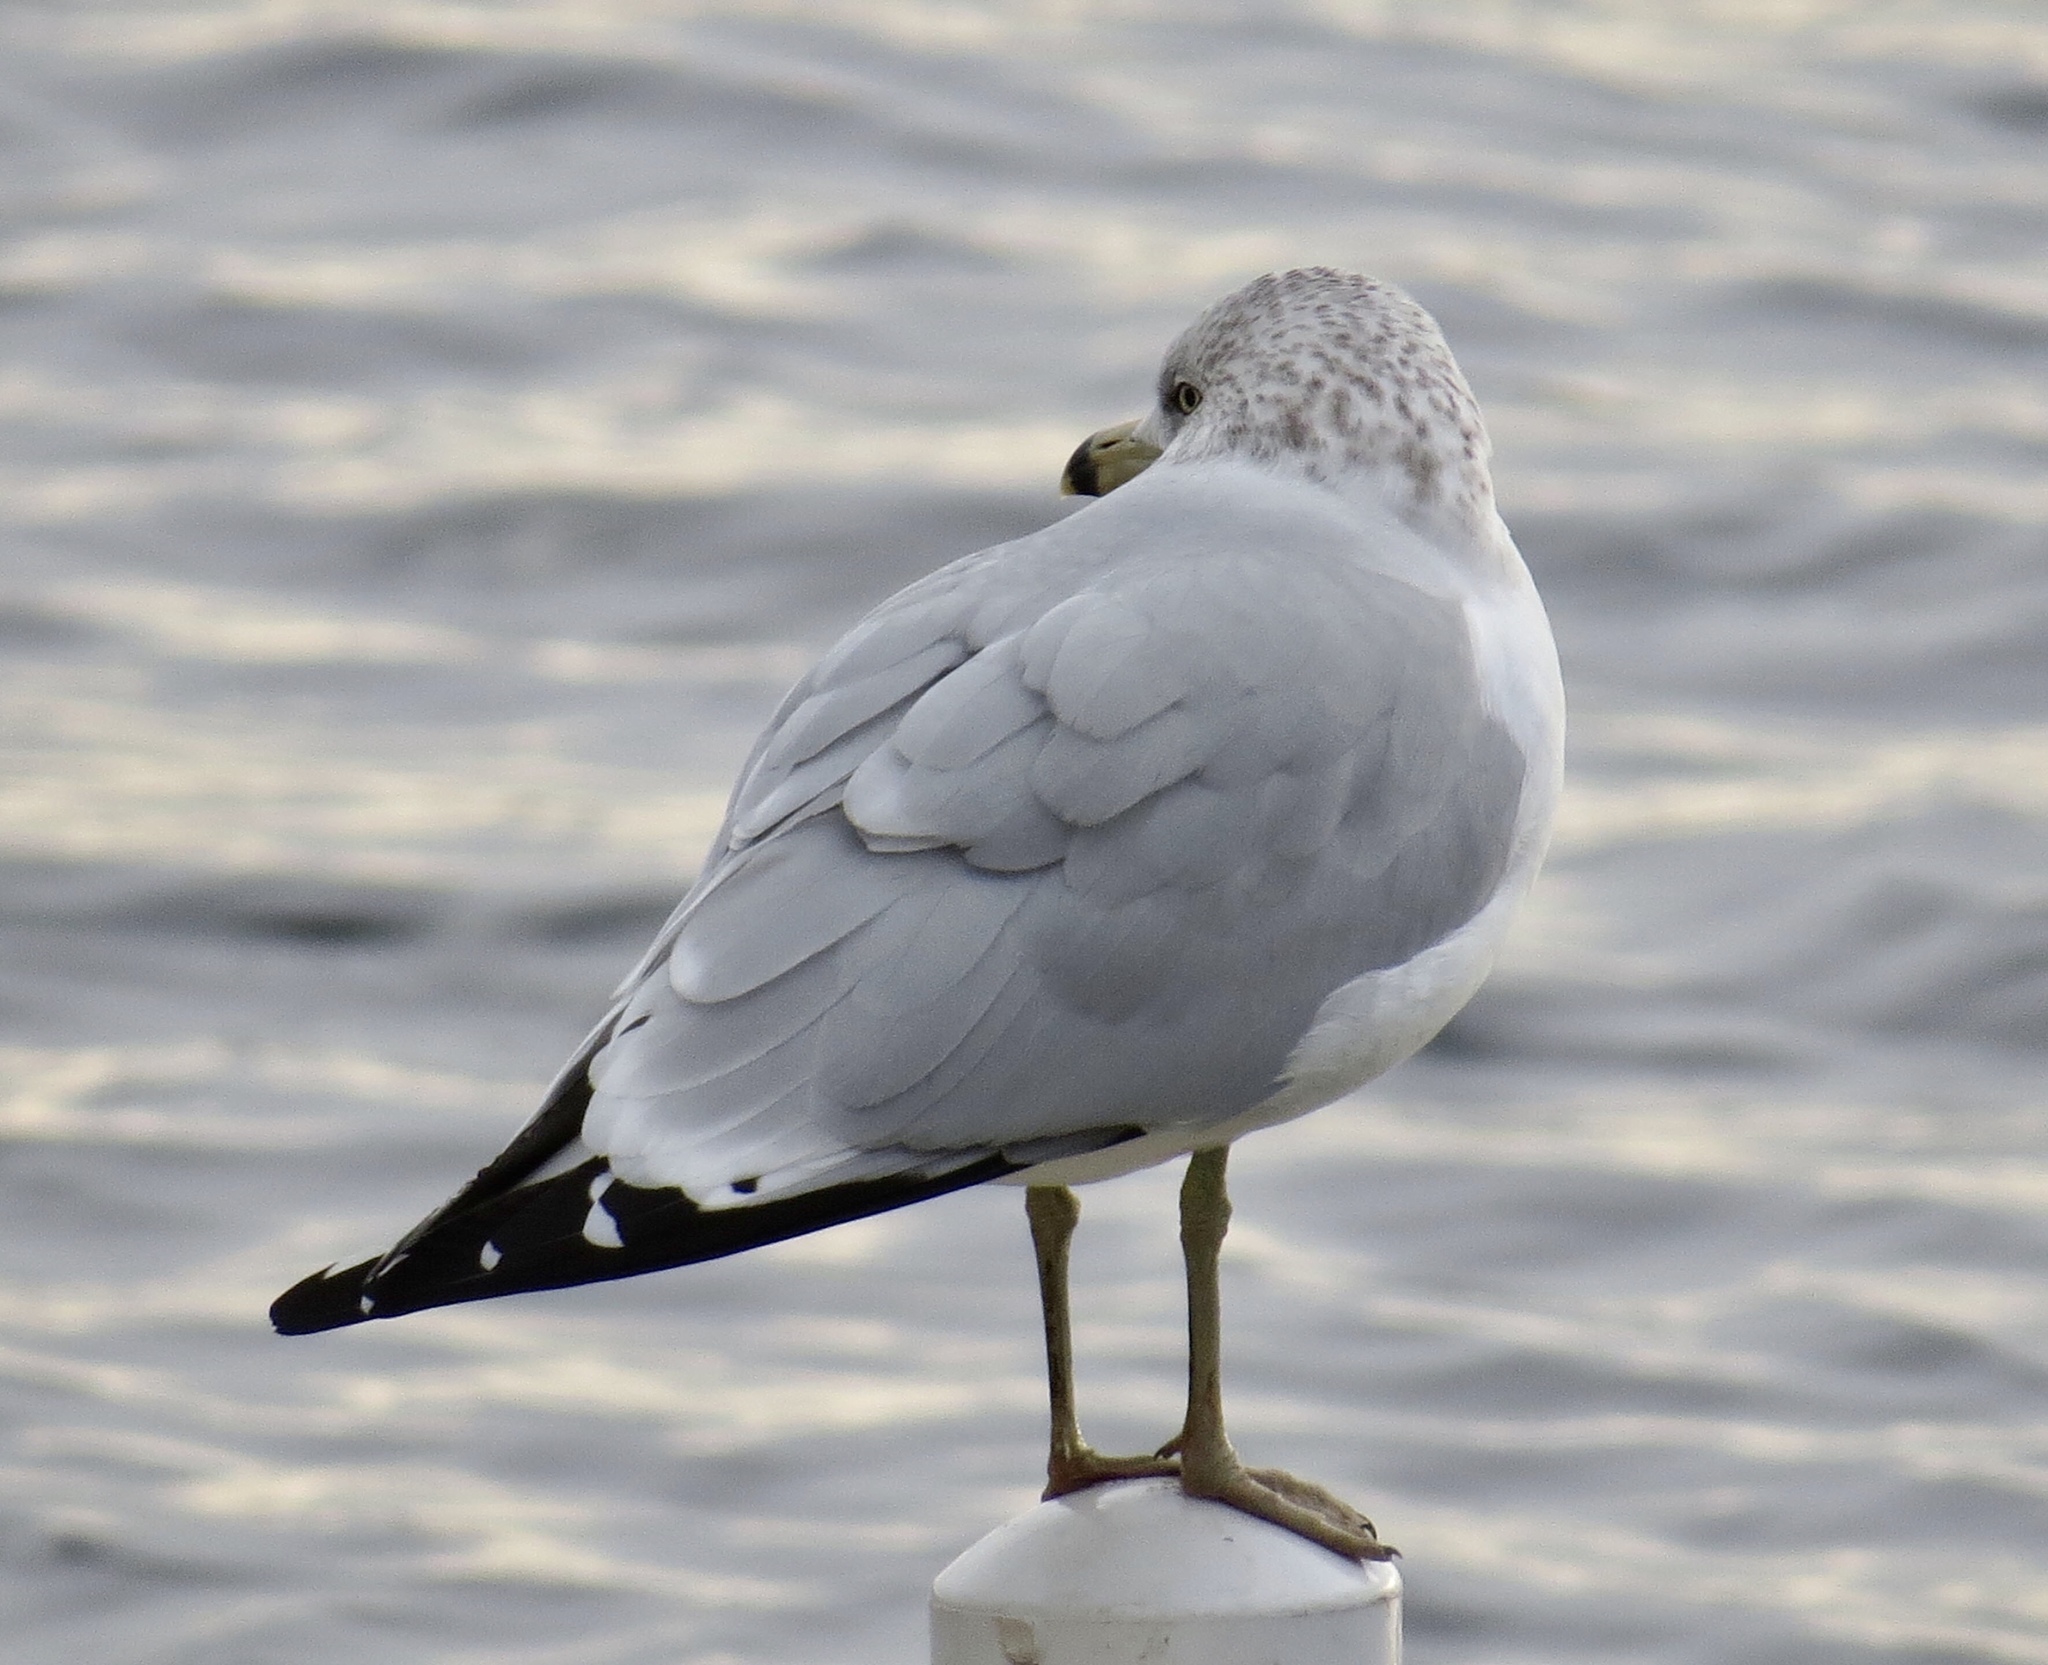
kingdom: Animalia
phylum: Chordata
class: Aves
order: Charadriiformes
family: Laridae
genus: Larus
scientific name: Larus delawarensis
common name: Ring-billed gull
